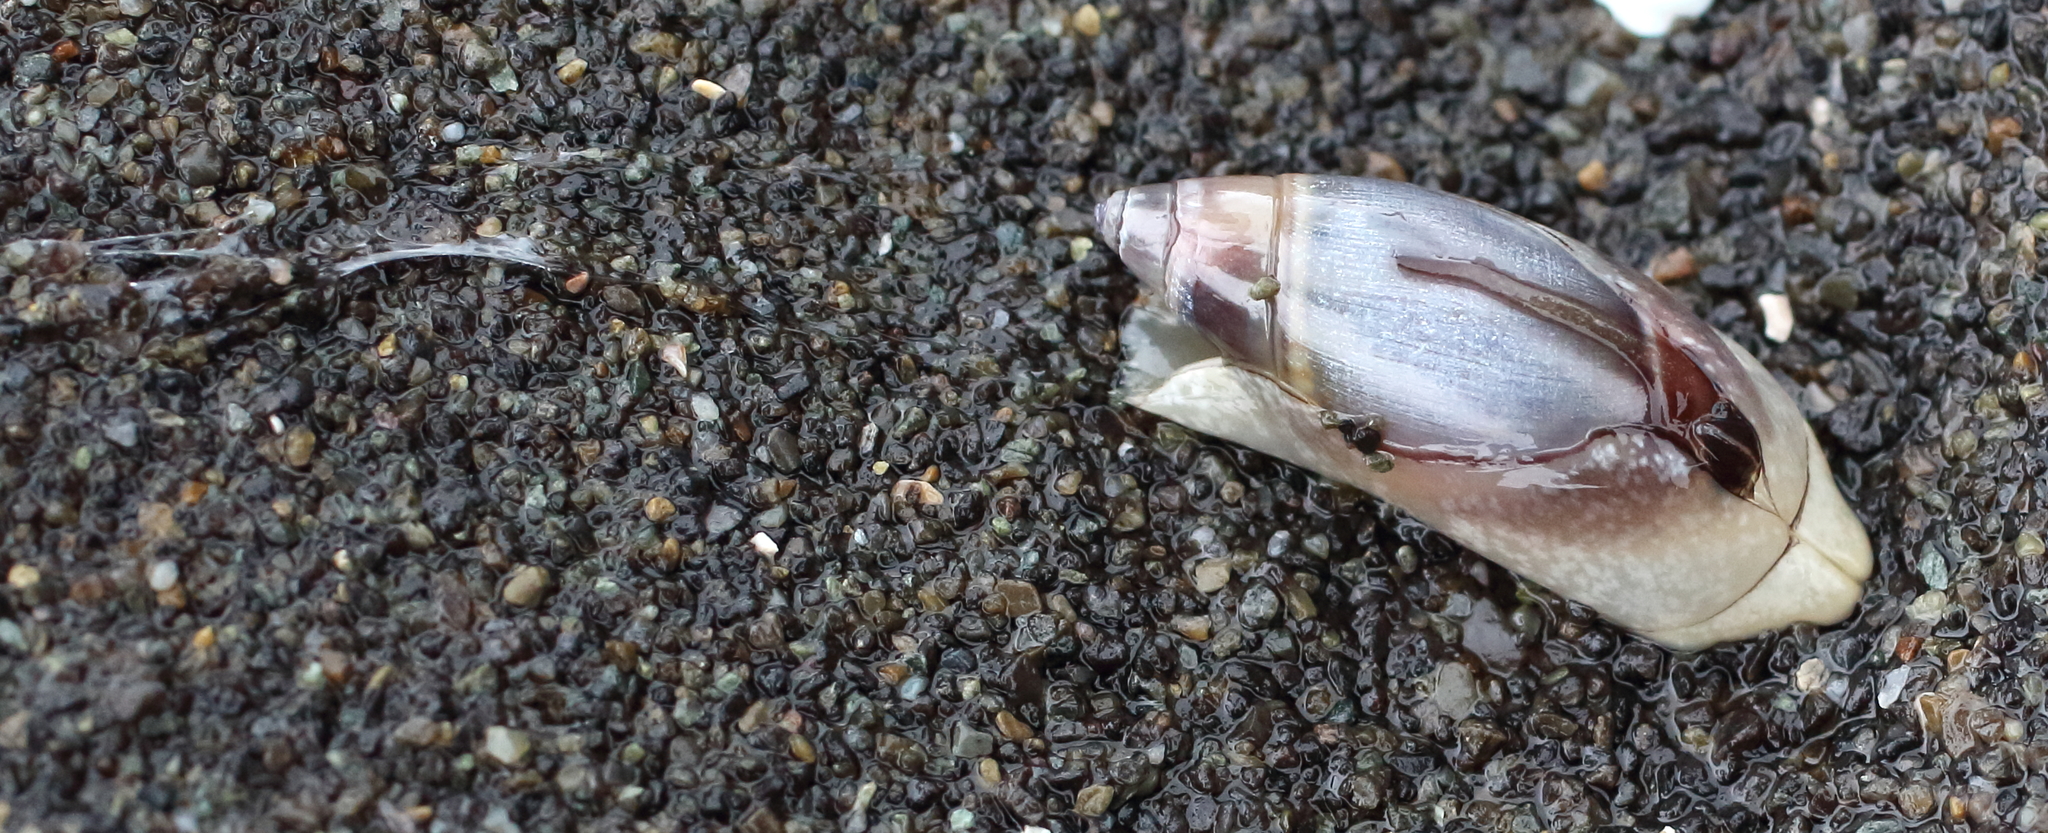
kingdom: Animalia
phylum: Mollusca
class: Gastropoda
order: Neogastropoda
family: Olividae
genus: Callianax
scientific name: Callianax alectona
